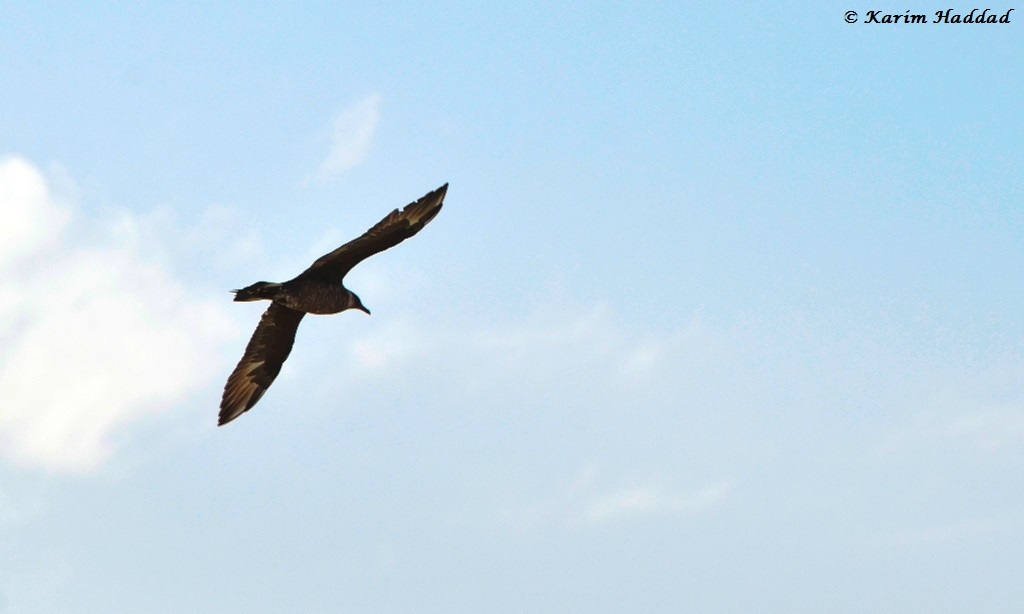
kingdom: Animalia
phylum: Chordata
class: Aves
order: Charadriiformes
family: Stercorariidae
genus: Stercorarius
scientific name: Stercorarius parasiticus
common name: Parasitic jaeger
